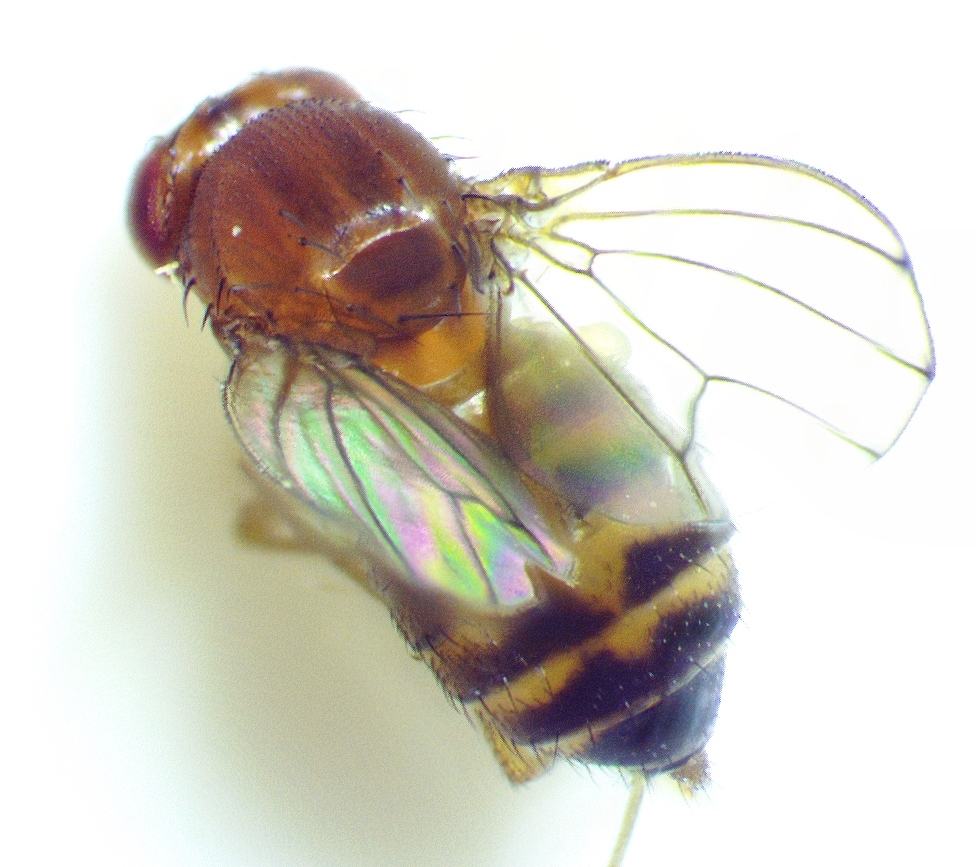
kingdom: Animalia
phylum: Arthropoda
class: Insecta
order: Diptera
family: Drosophilidae
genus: Drosophila
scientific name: Drosophila immigrans
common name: Pomace fly
